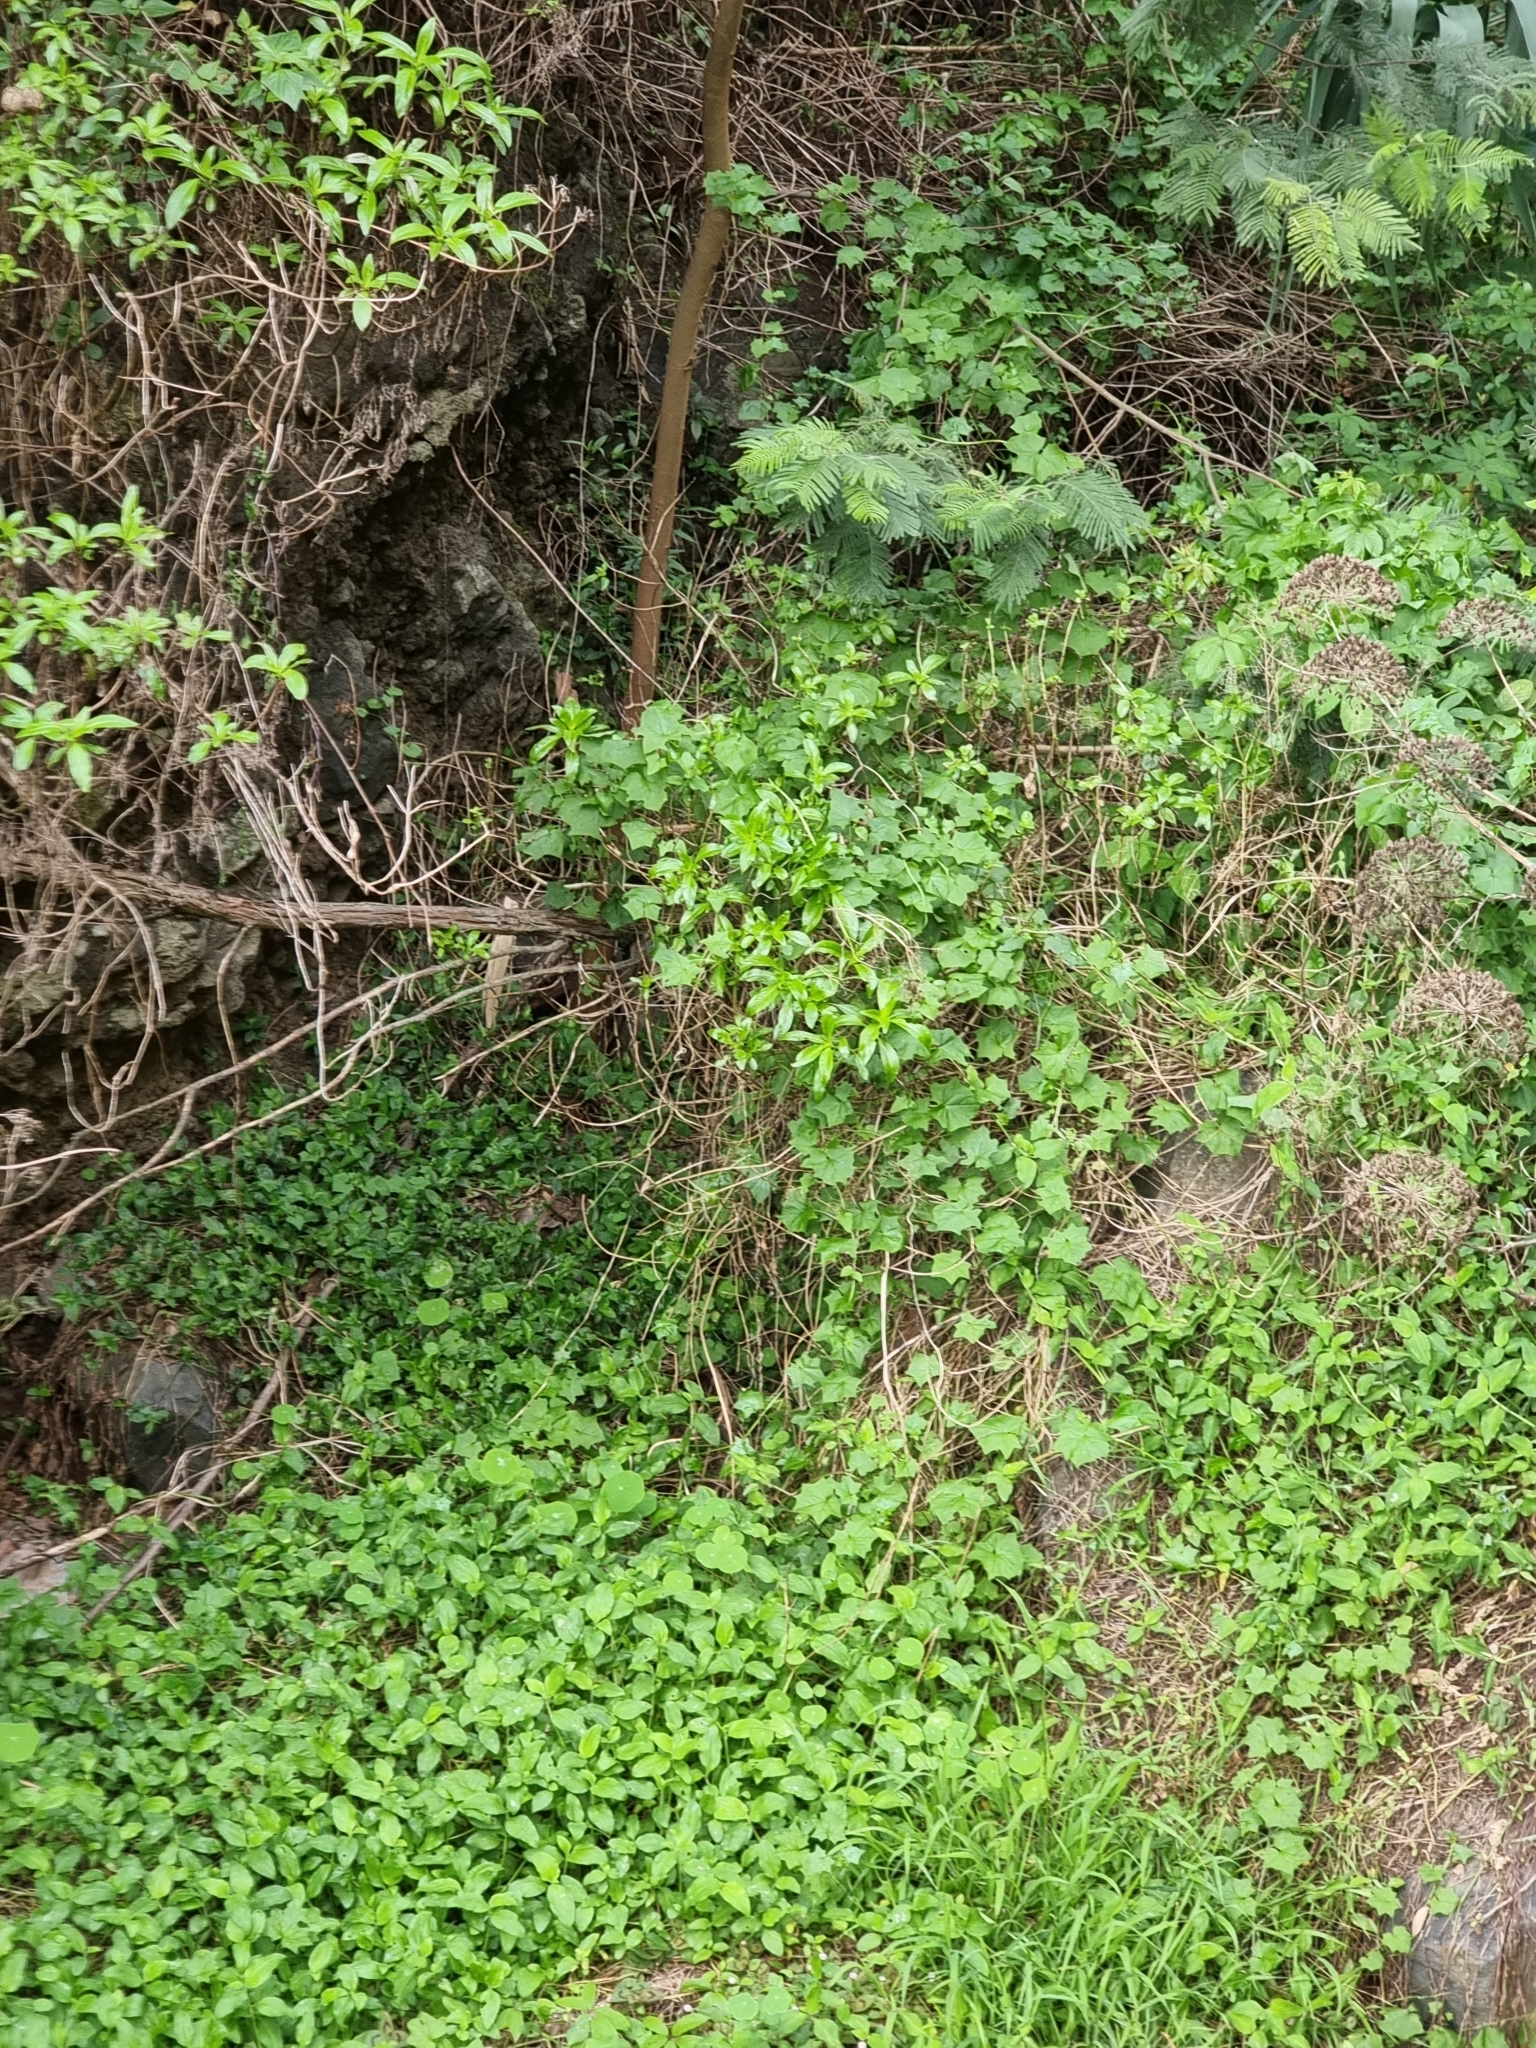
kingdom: Plantae
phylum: Tracheophyta
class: Magnoliopsida
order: Gentianales
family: Rubiaceae
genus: Phyllis
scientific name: Phyllis nobla
